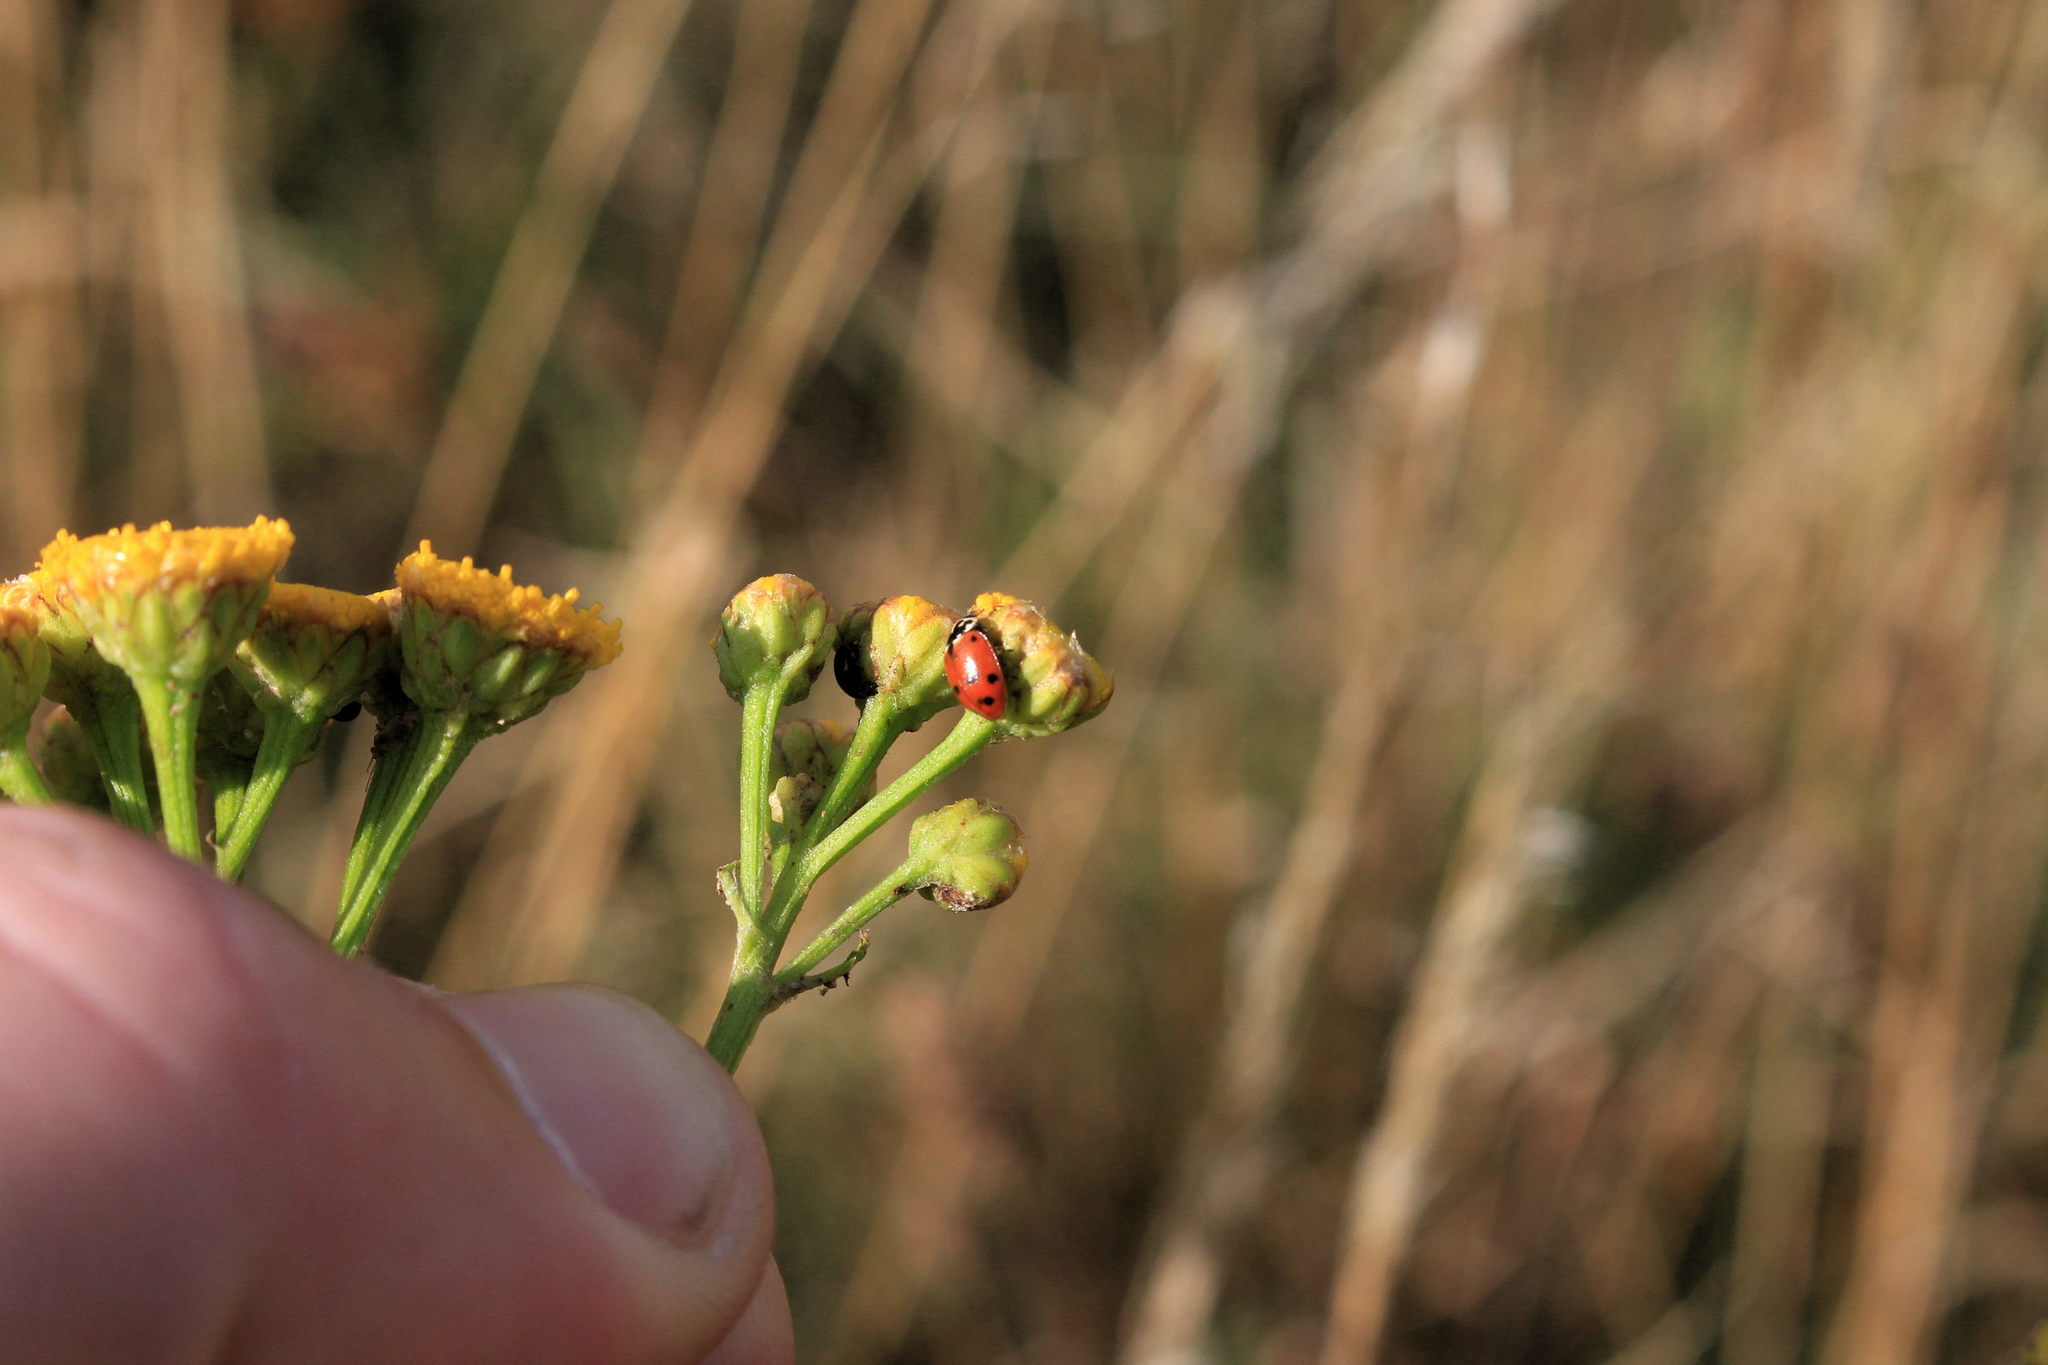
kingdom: Animalia
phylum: Arthropoda
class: Insecta
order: Coleoptera
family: Coccinellidae
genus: Hippodamia
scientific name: Hippodamia variegata
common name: Ladybird beetle
